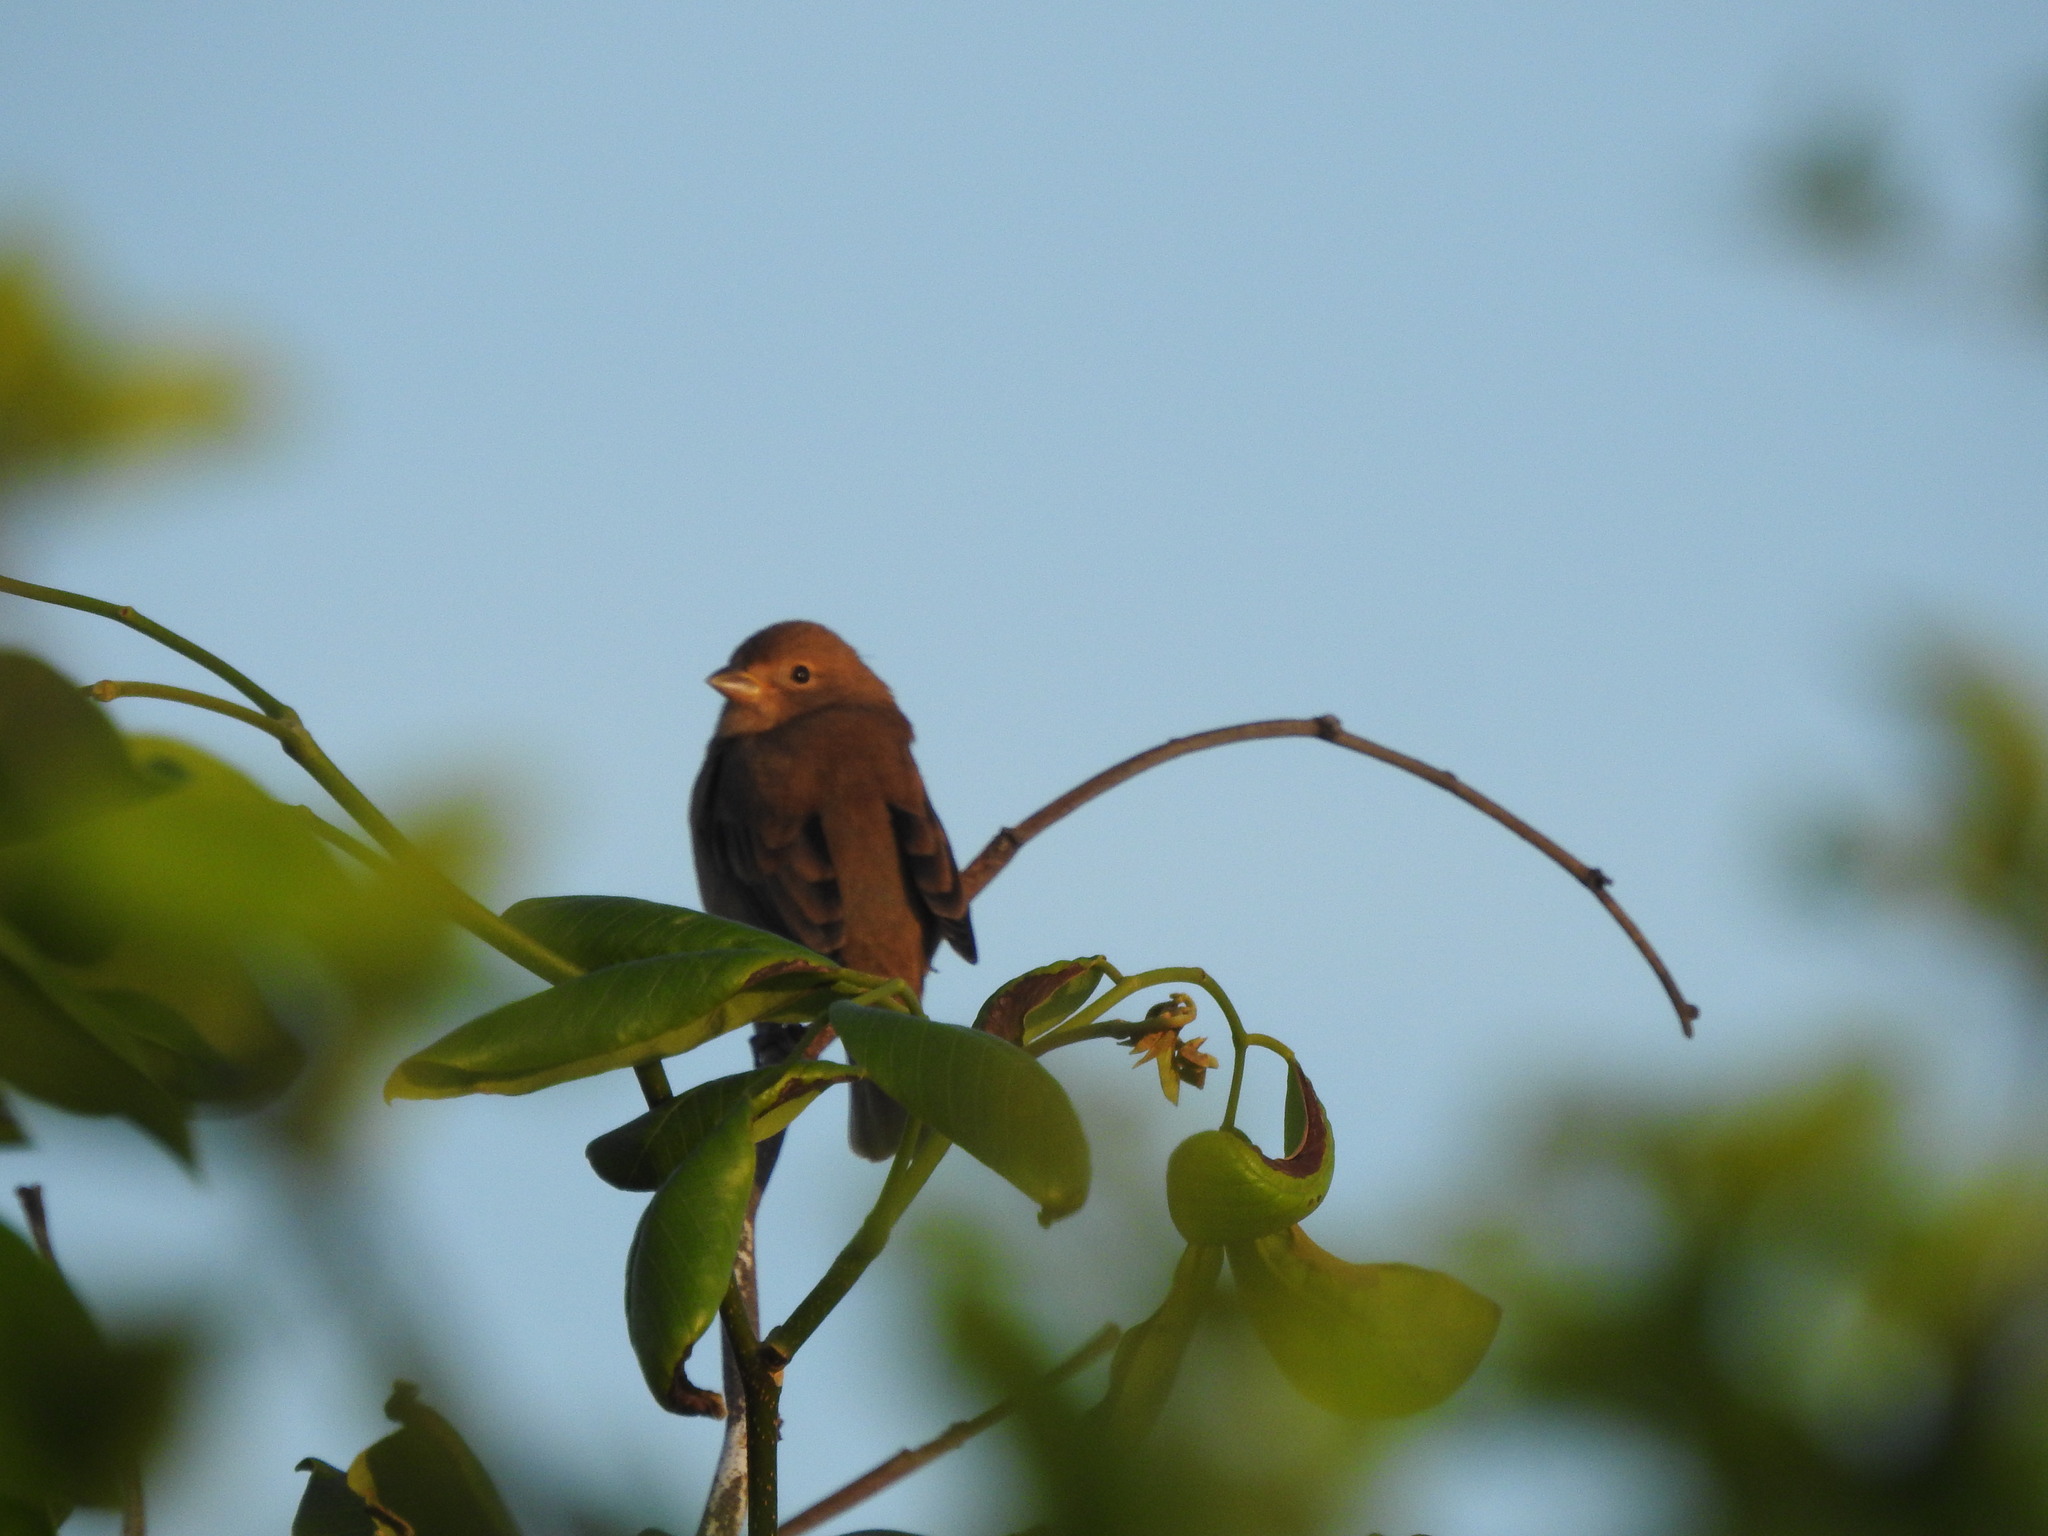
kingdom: Animalia
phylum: Chordata
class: Aves
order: Passeriformes
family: Cardinalidae
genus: Passerina
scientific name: Passerina cyanea
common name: Indigo bunting
